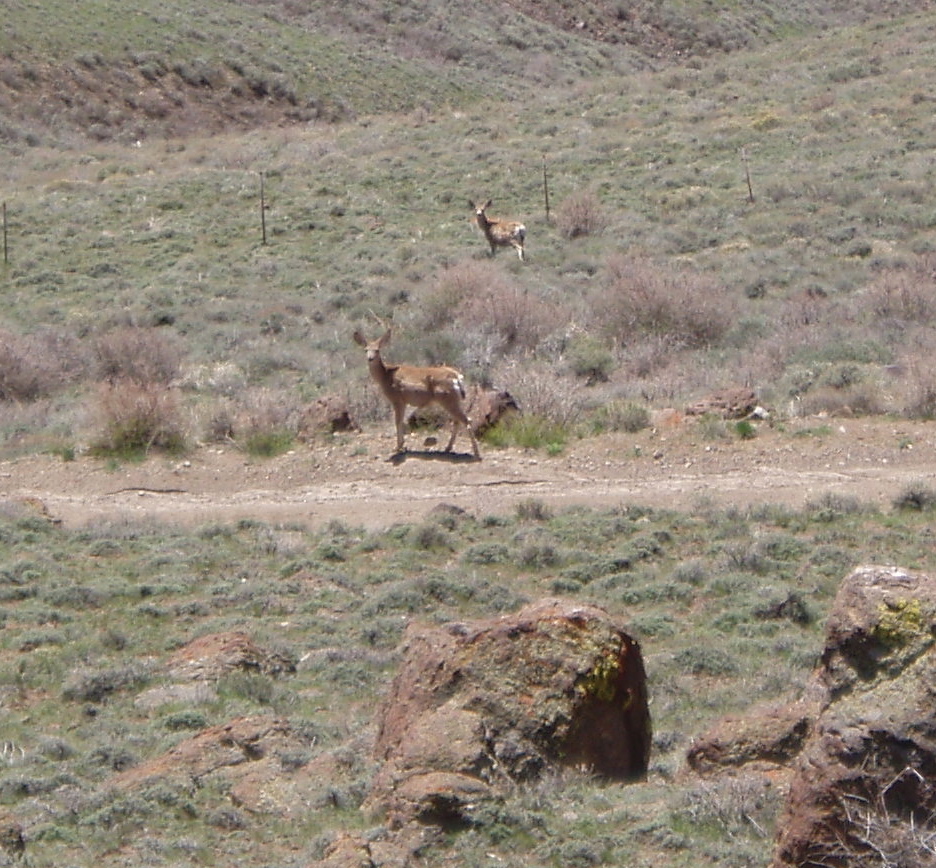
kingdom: Animalia
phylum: Chordata
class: Mammalia
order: Artiodactyla
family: Cervidae
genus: Odocoileus
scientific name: Odocoileus hemionus
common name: Mule deer
